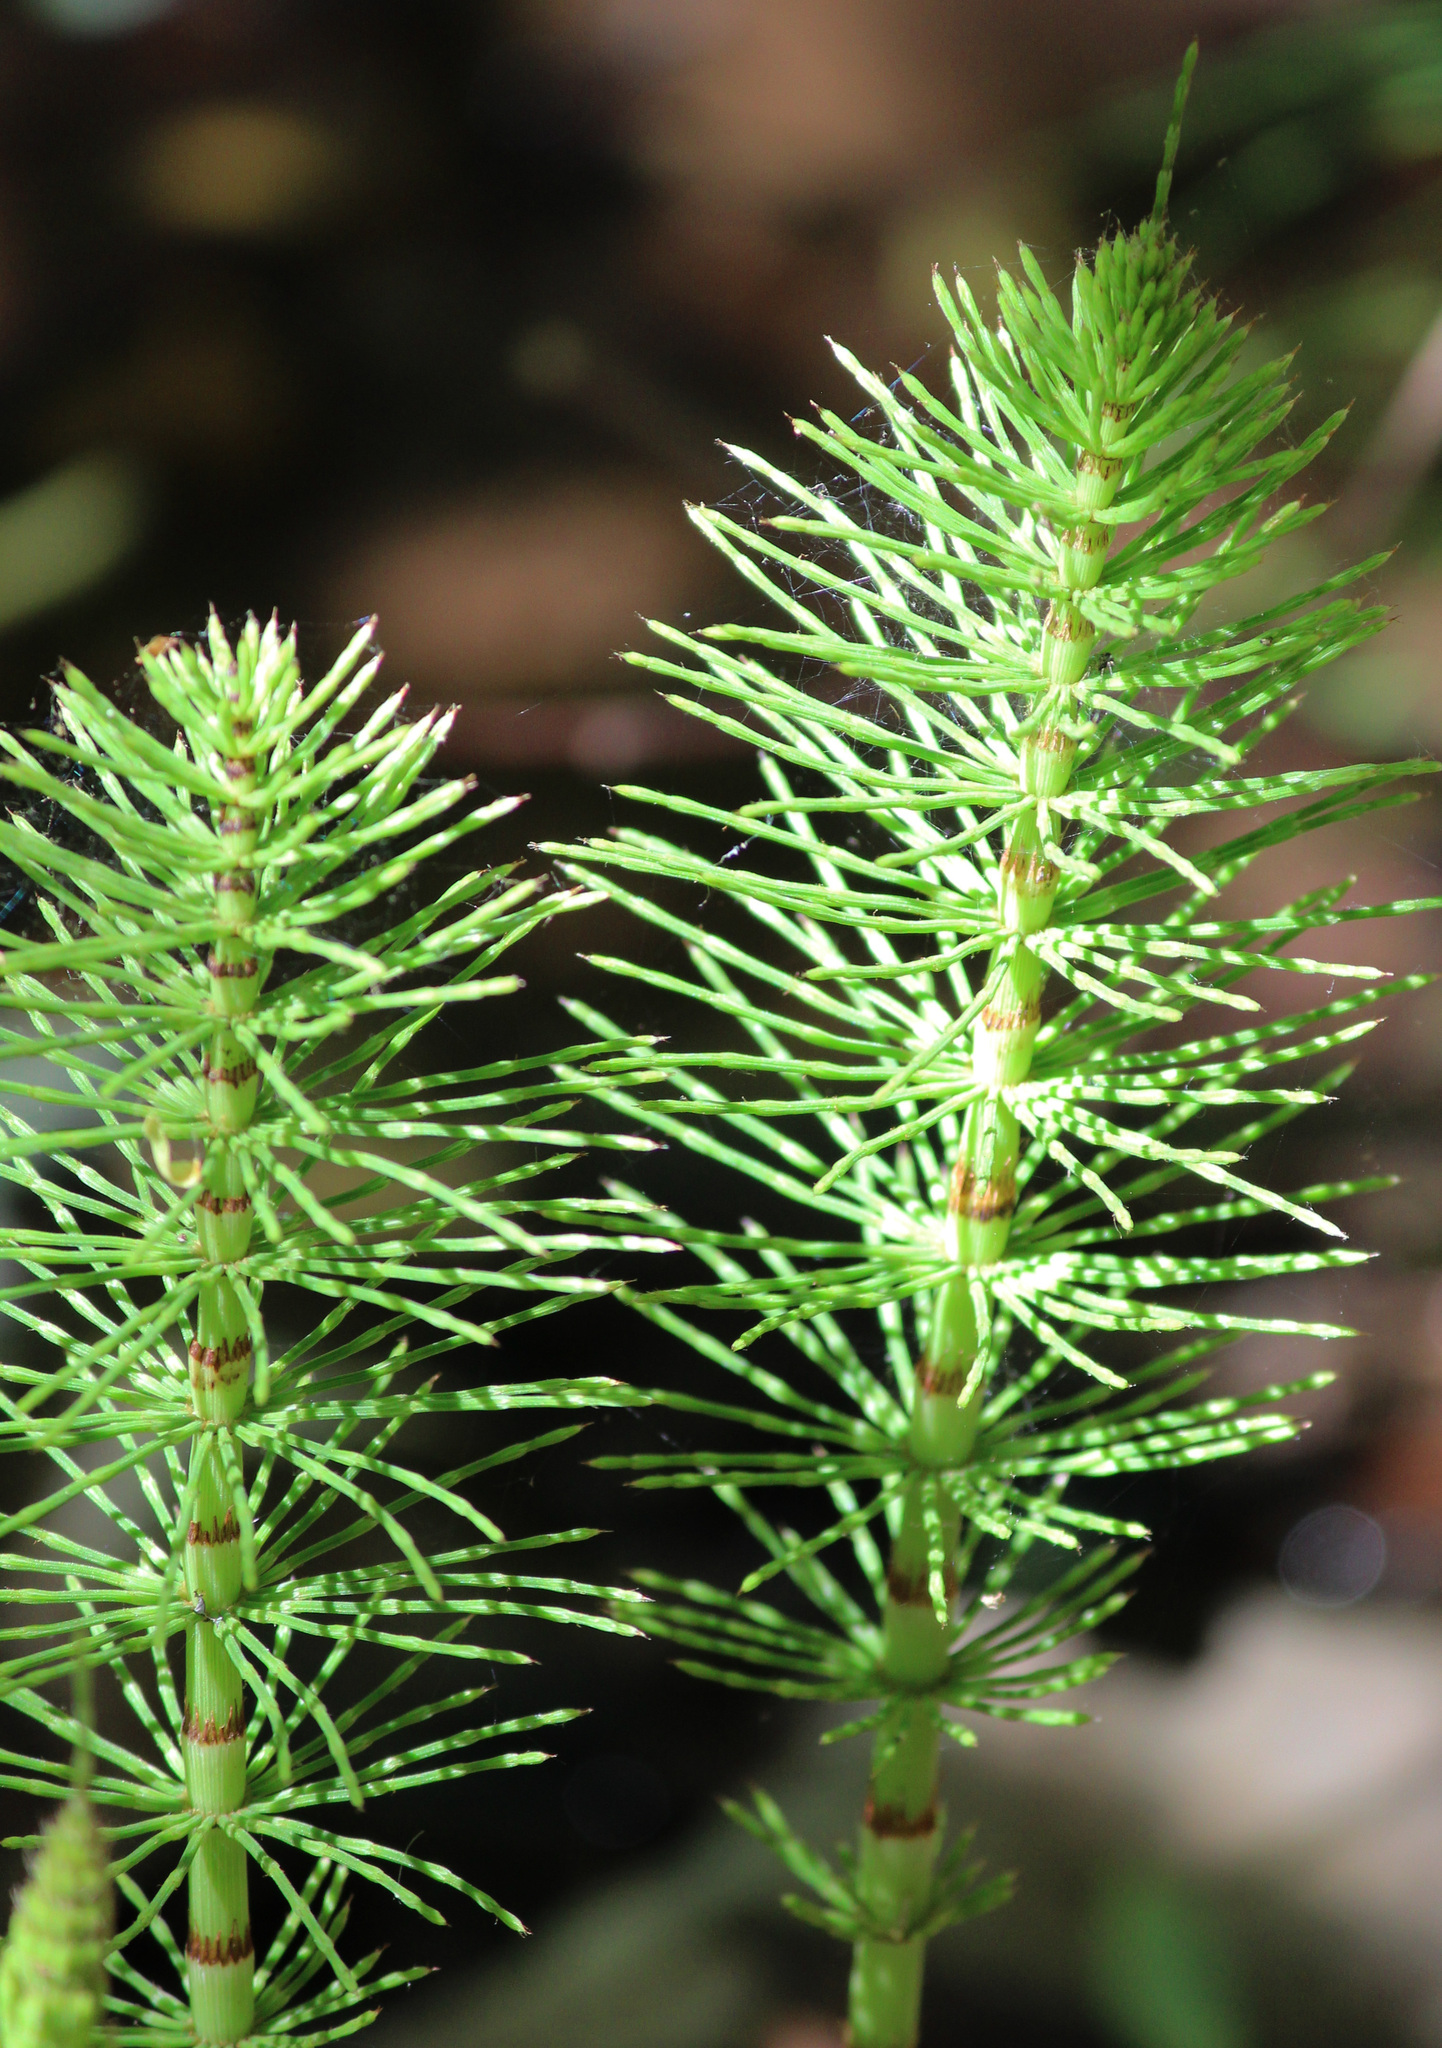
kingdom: Plantae
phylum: Tracheophyta
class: Polypodiopsida
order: Equisetales
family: Equisetaceae
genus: Equisetum
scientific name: Equisetum braunii
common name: Braun's horsetail
